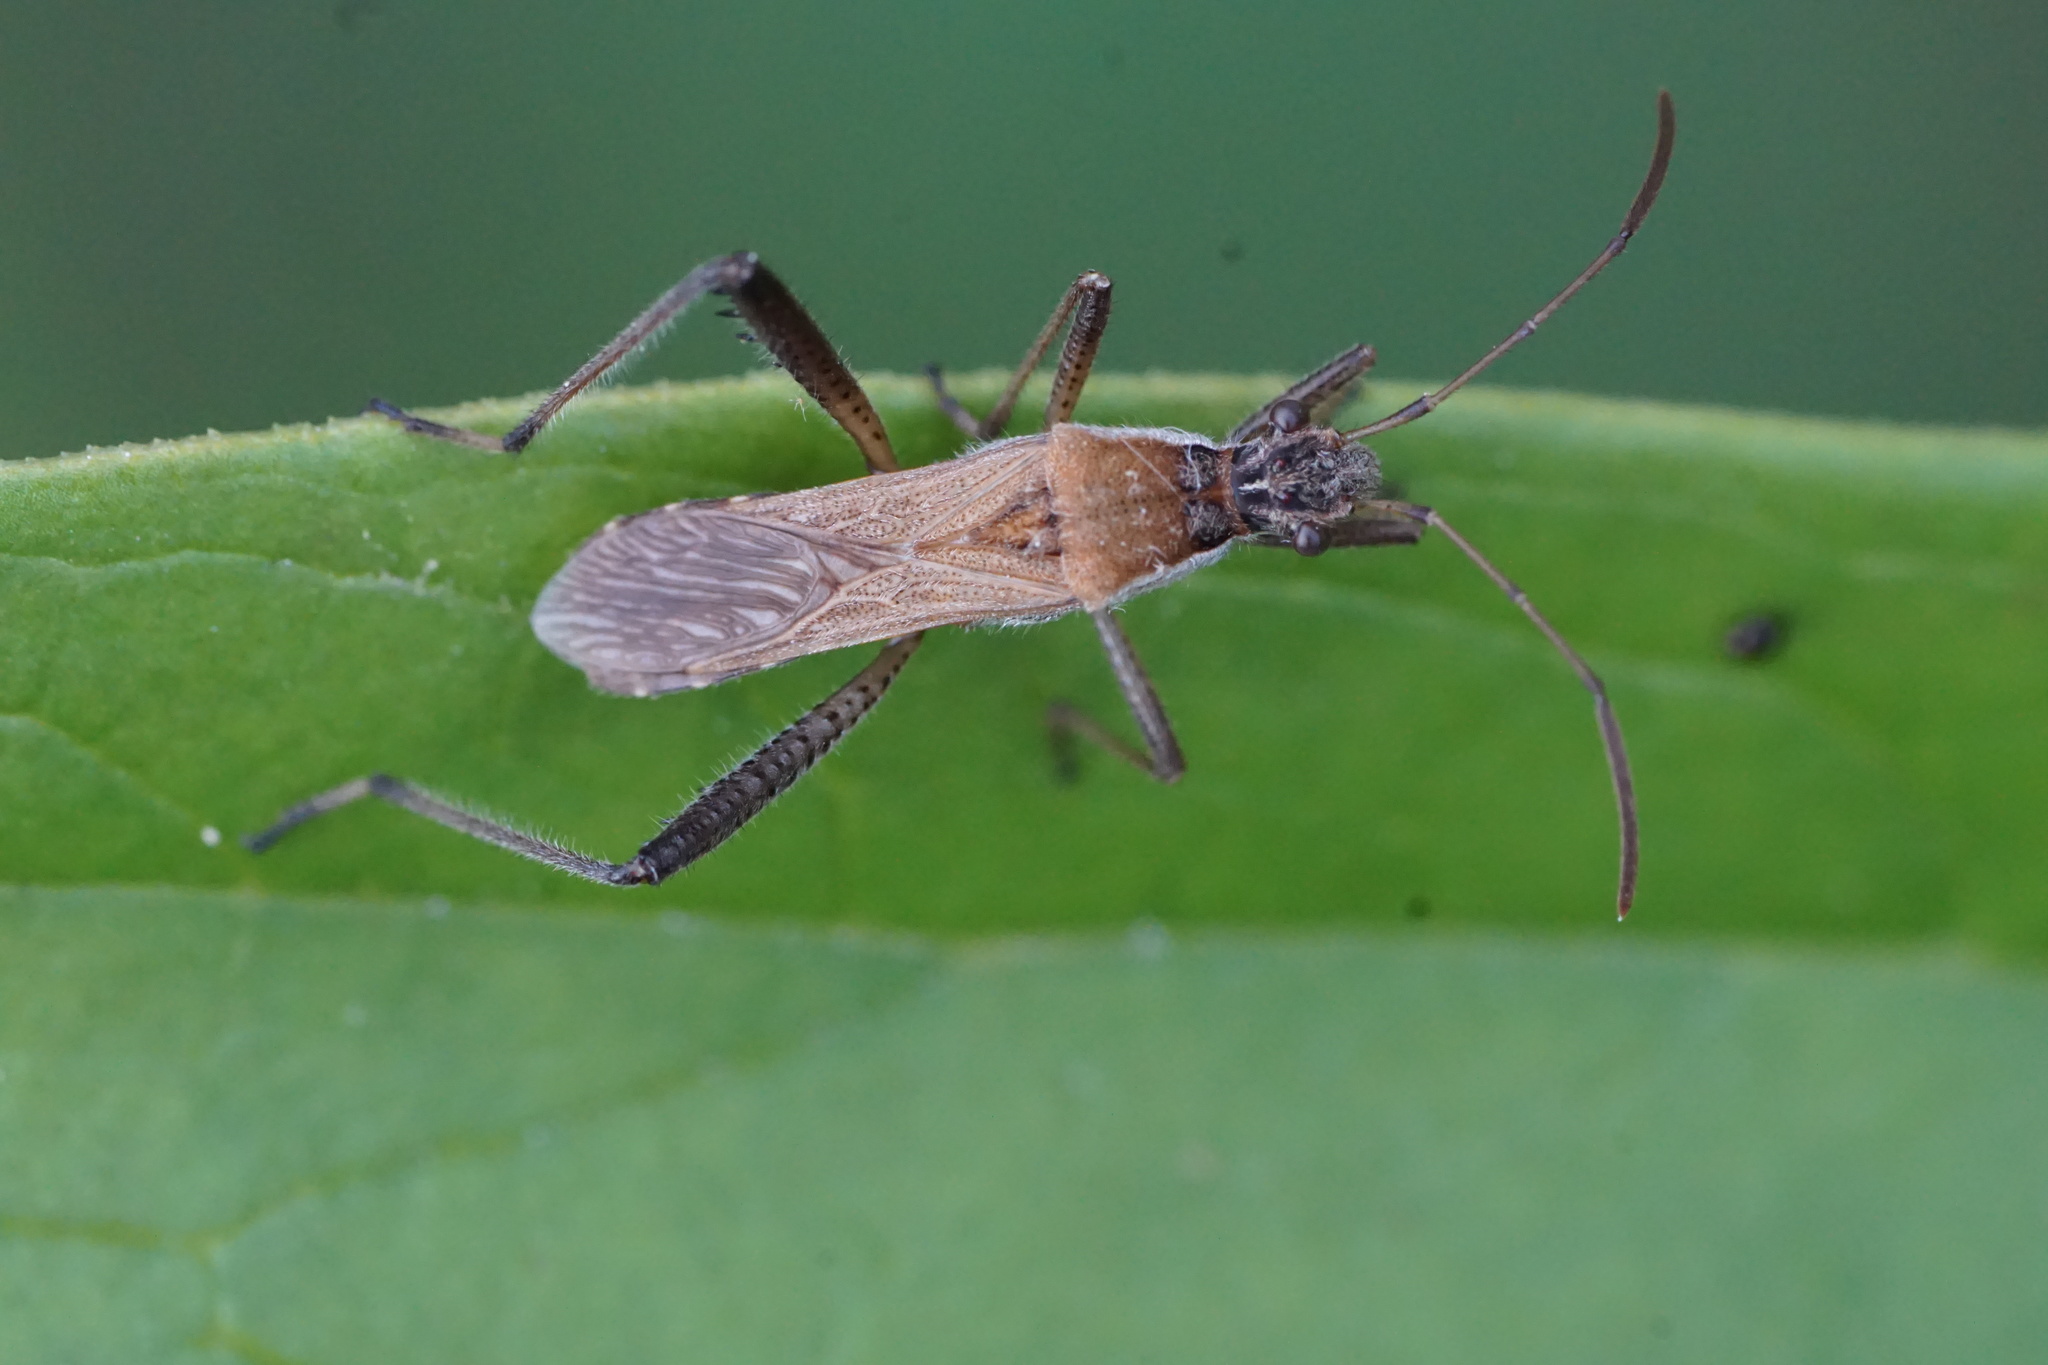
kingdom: Animalia
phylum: Arthropoda
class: Insecta
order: Hemiptera
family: Alydidae
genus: Alydus
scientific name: Alydus pilosulus
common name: Broad-headed bug
